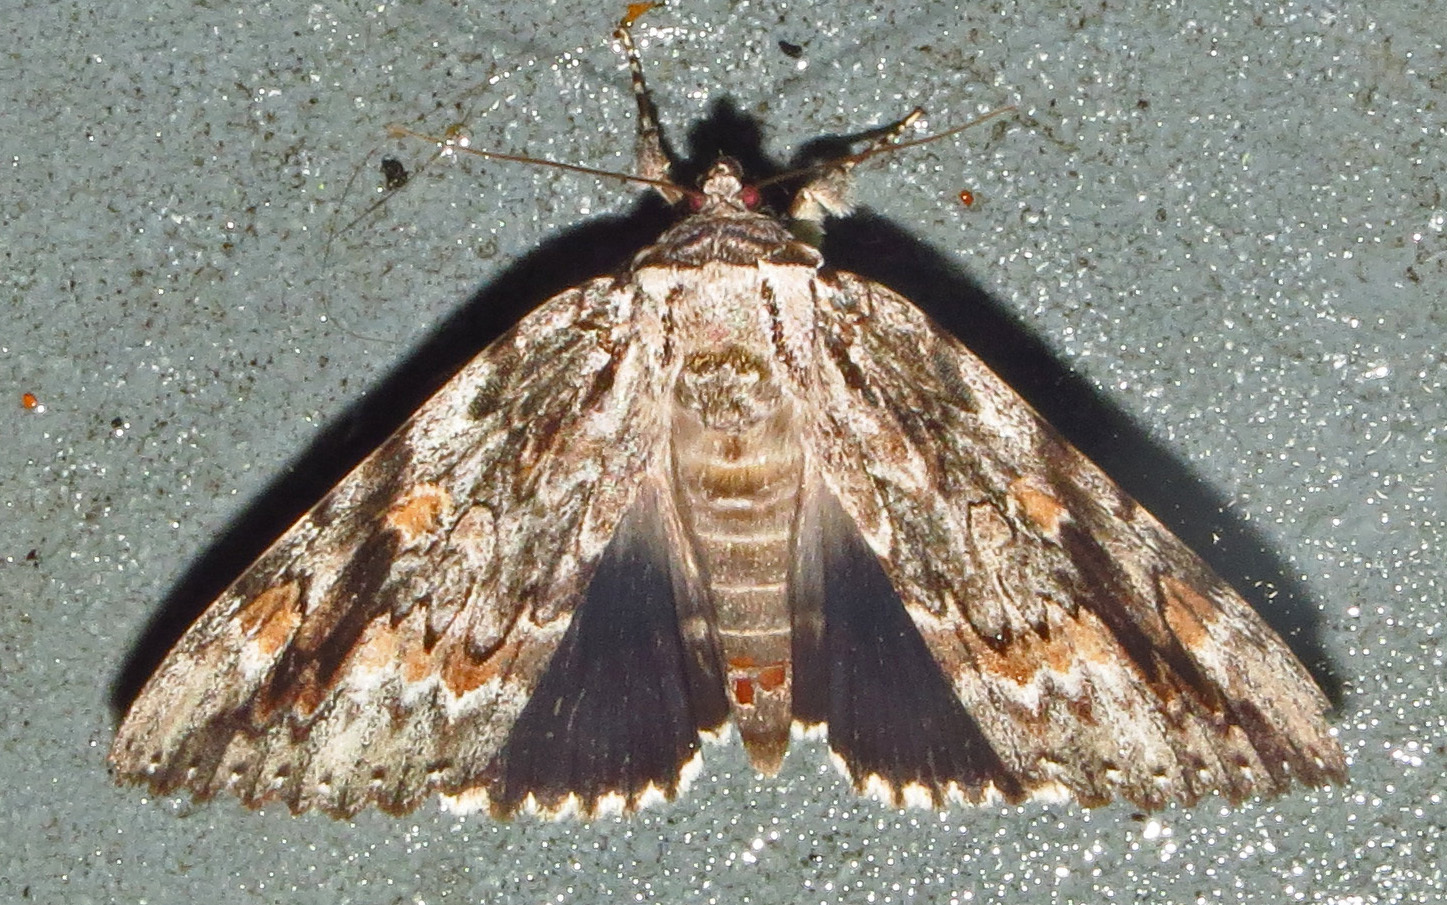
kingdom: Animalia
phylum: Arthropoda
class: Insecta
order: Lepidoptera
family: Erebidae
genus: Catocala
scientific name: Catocala maestosa
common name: Sad underwing
